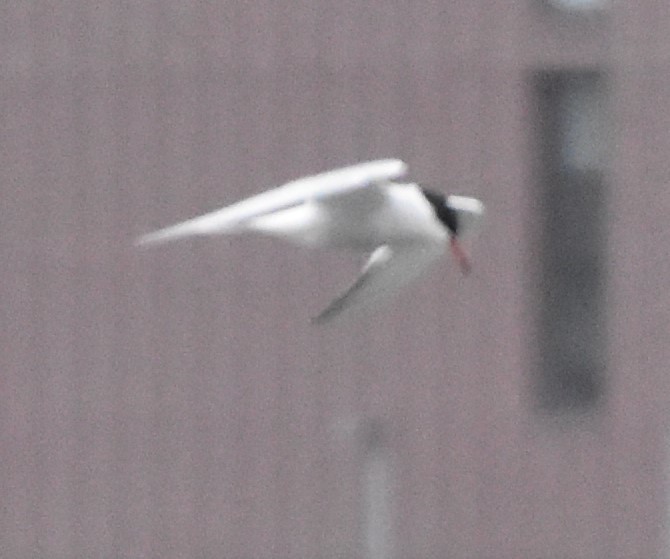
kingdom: Animalia
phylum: Chordata
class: Aves
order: Charadriiformes
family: Laridae
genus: Sterna
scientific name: Sterna hirundo
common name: Common tern
